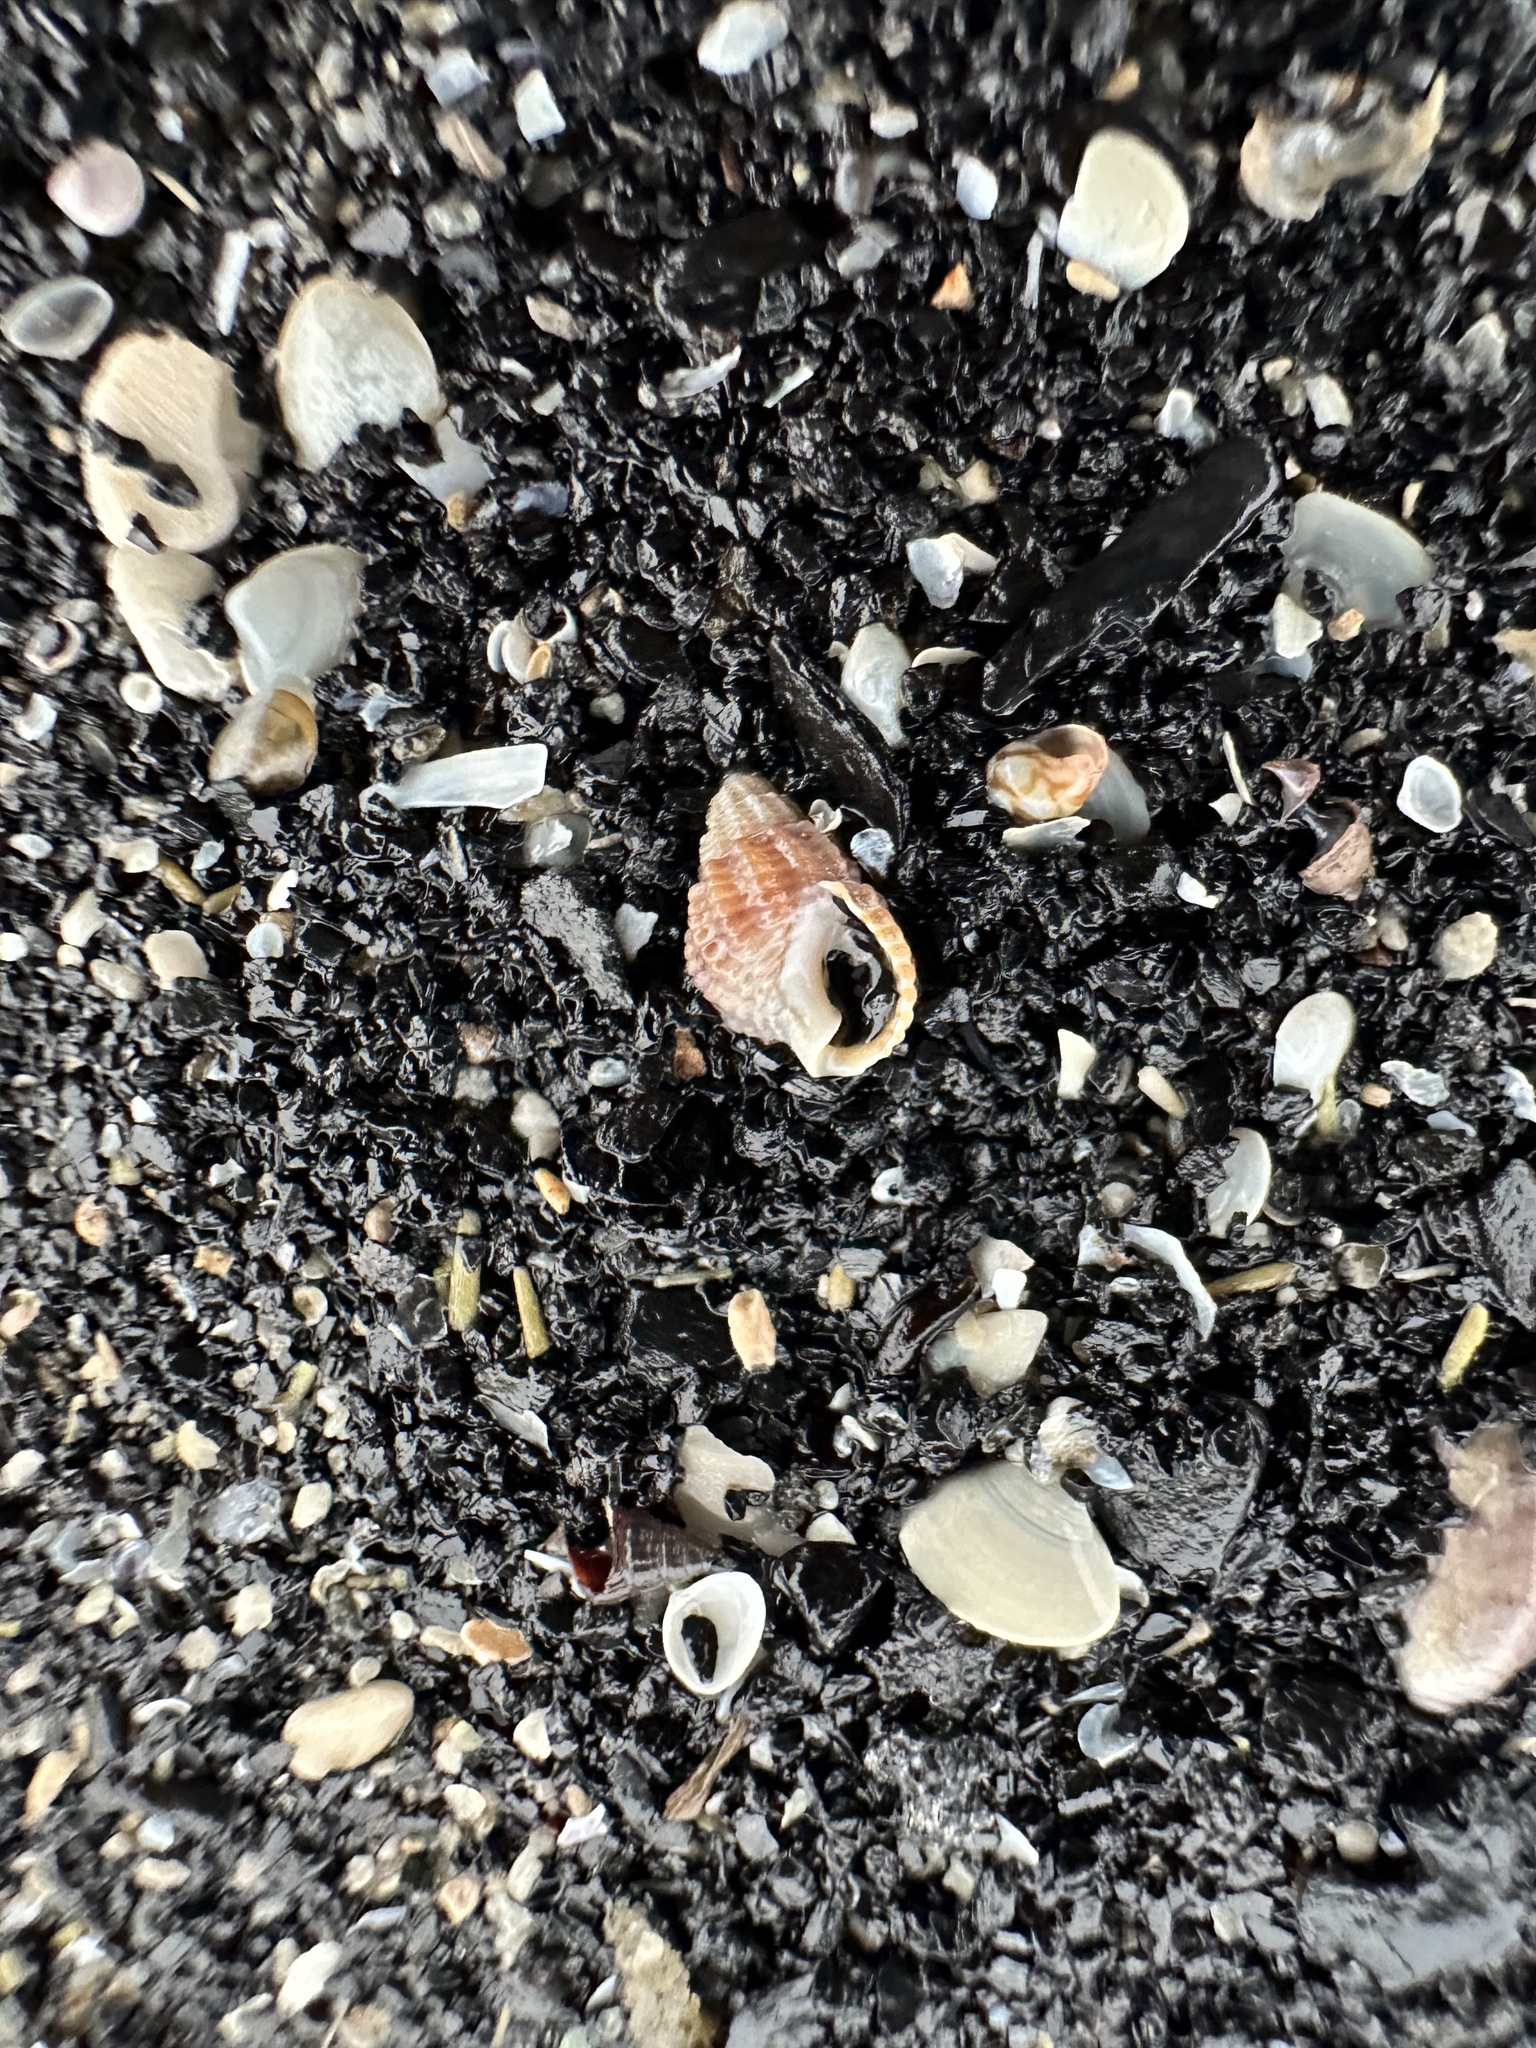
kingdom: Animalia
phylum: Mollusca
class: Gastropoda
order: Neogastropoda
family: Nassariidae
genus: Ilyanassa
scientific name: Ilyanassa trivittata
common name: Three-line mudsnail
